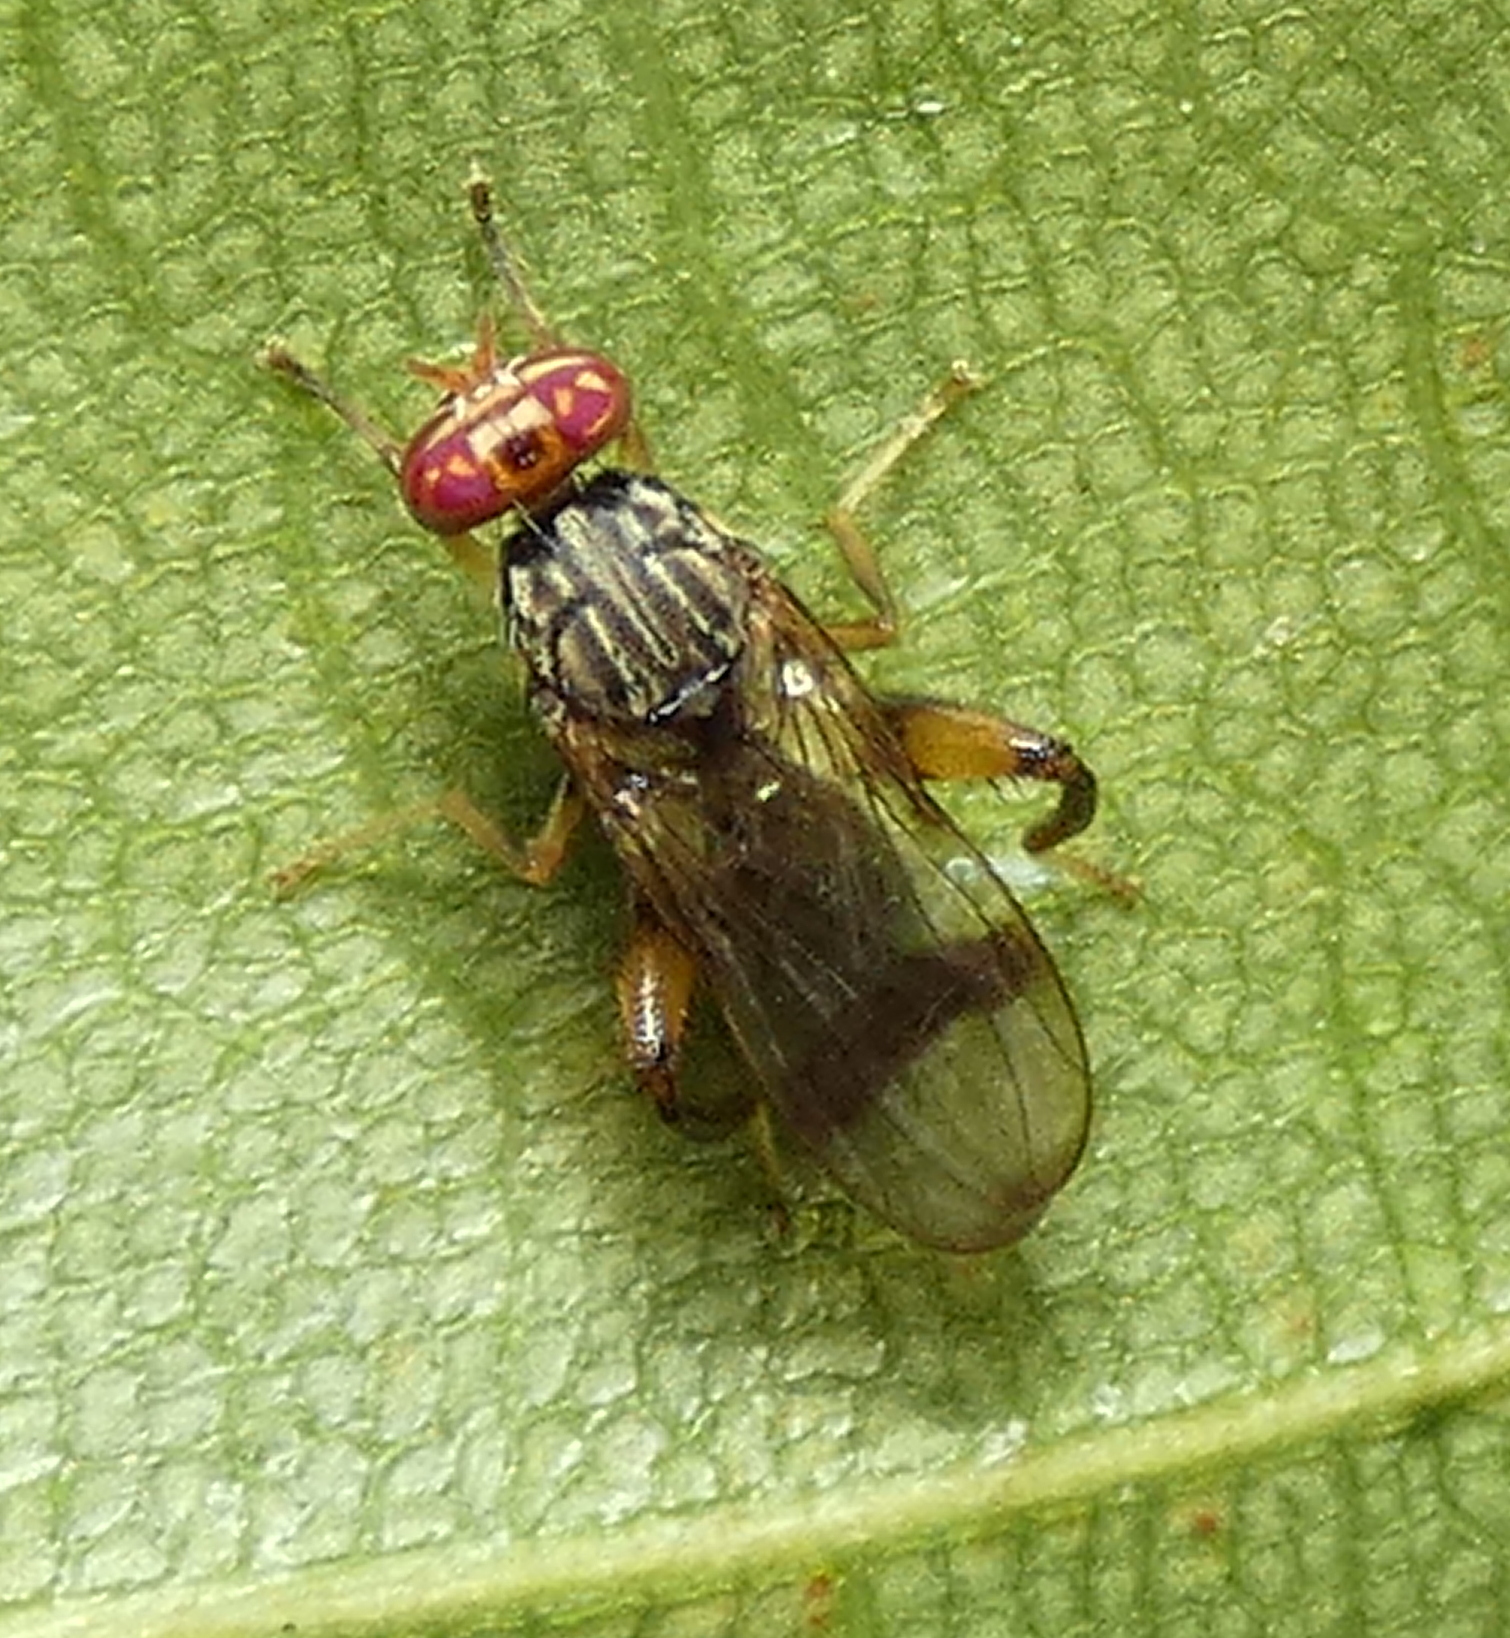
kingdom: Animalia
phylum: Arthropoda
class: Insecta
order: Diptera
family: Richardiidae
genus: Richardia
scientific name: Richardia
